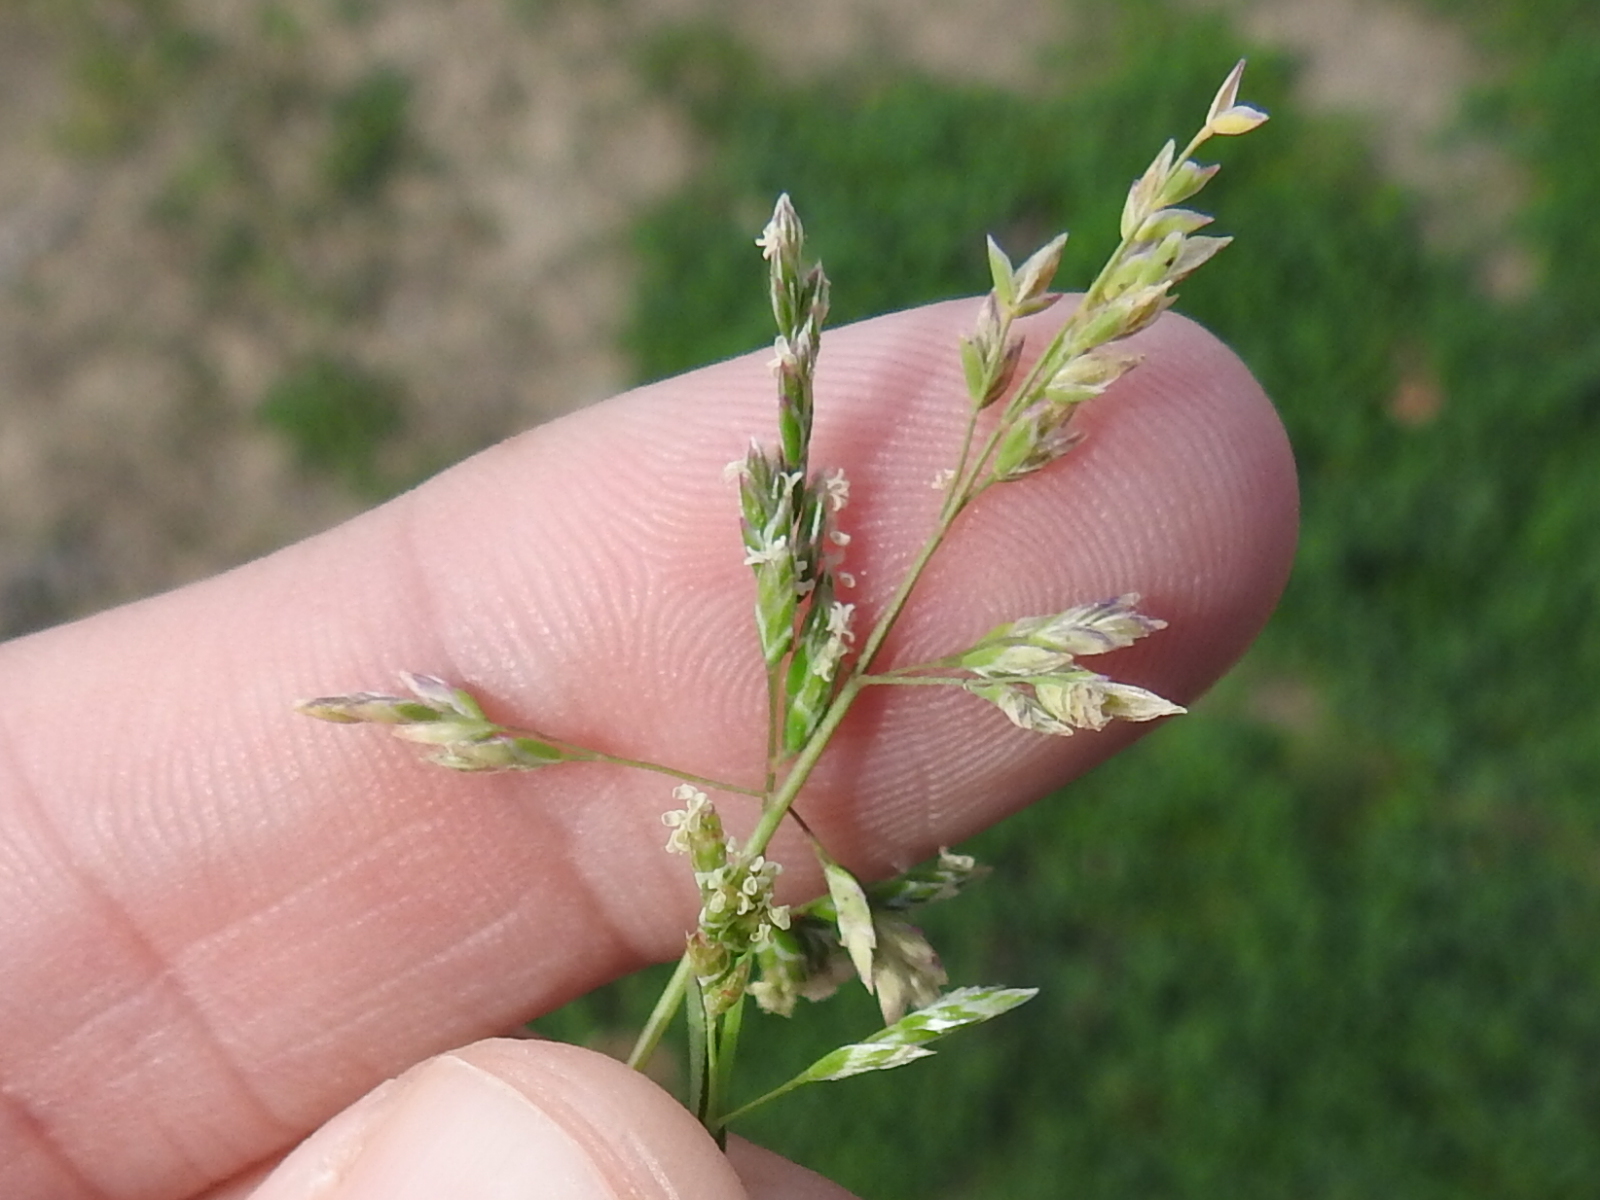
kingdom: Plantae
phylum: Tracheophyta
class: Liliopsida
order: Poales
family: Poaceae
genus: Poa
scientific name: Poa annua
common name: Annual bluegrass
